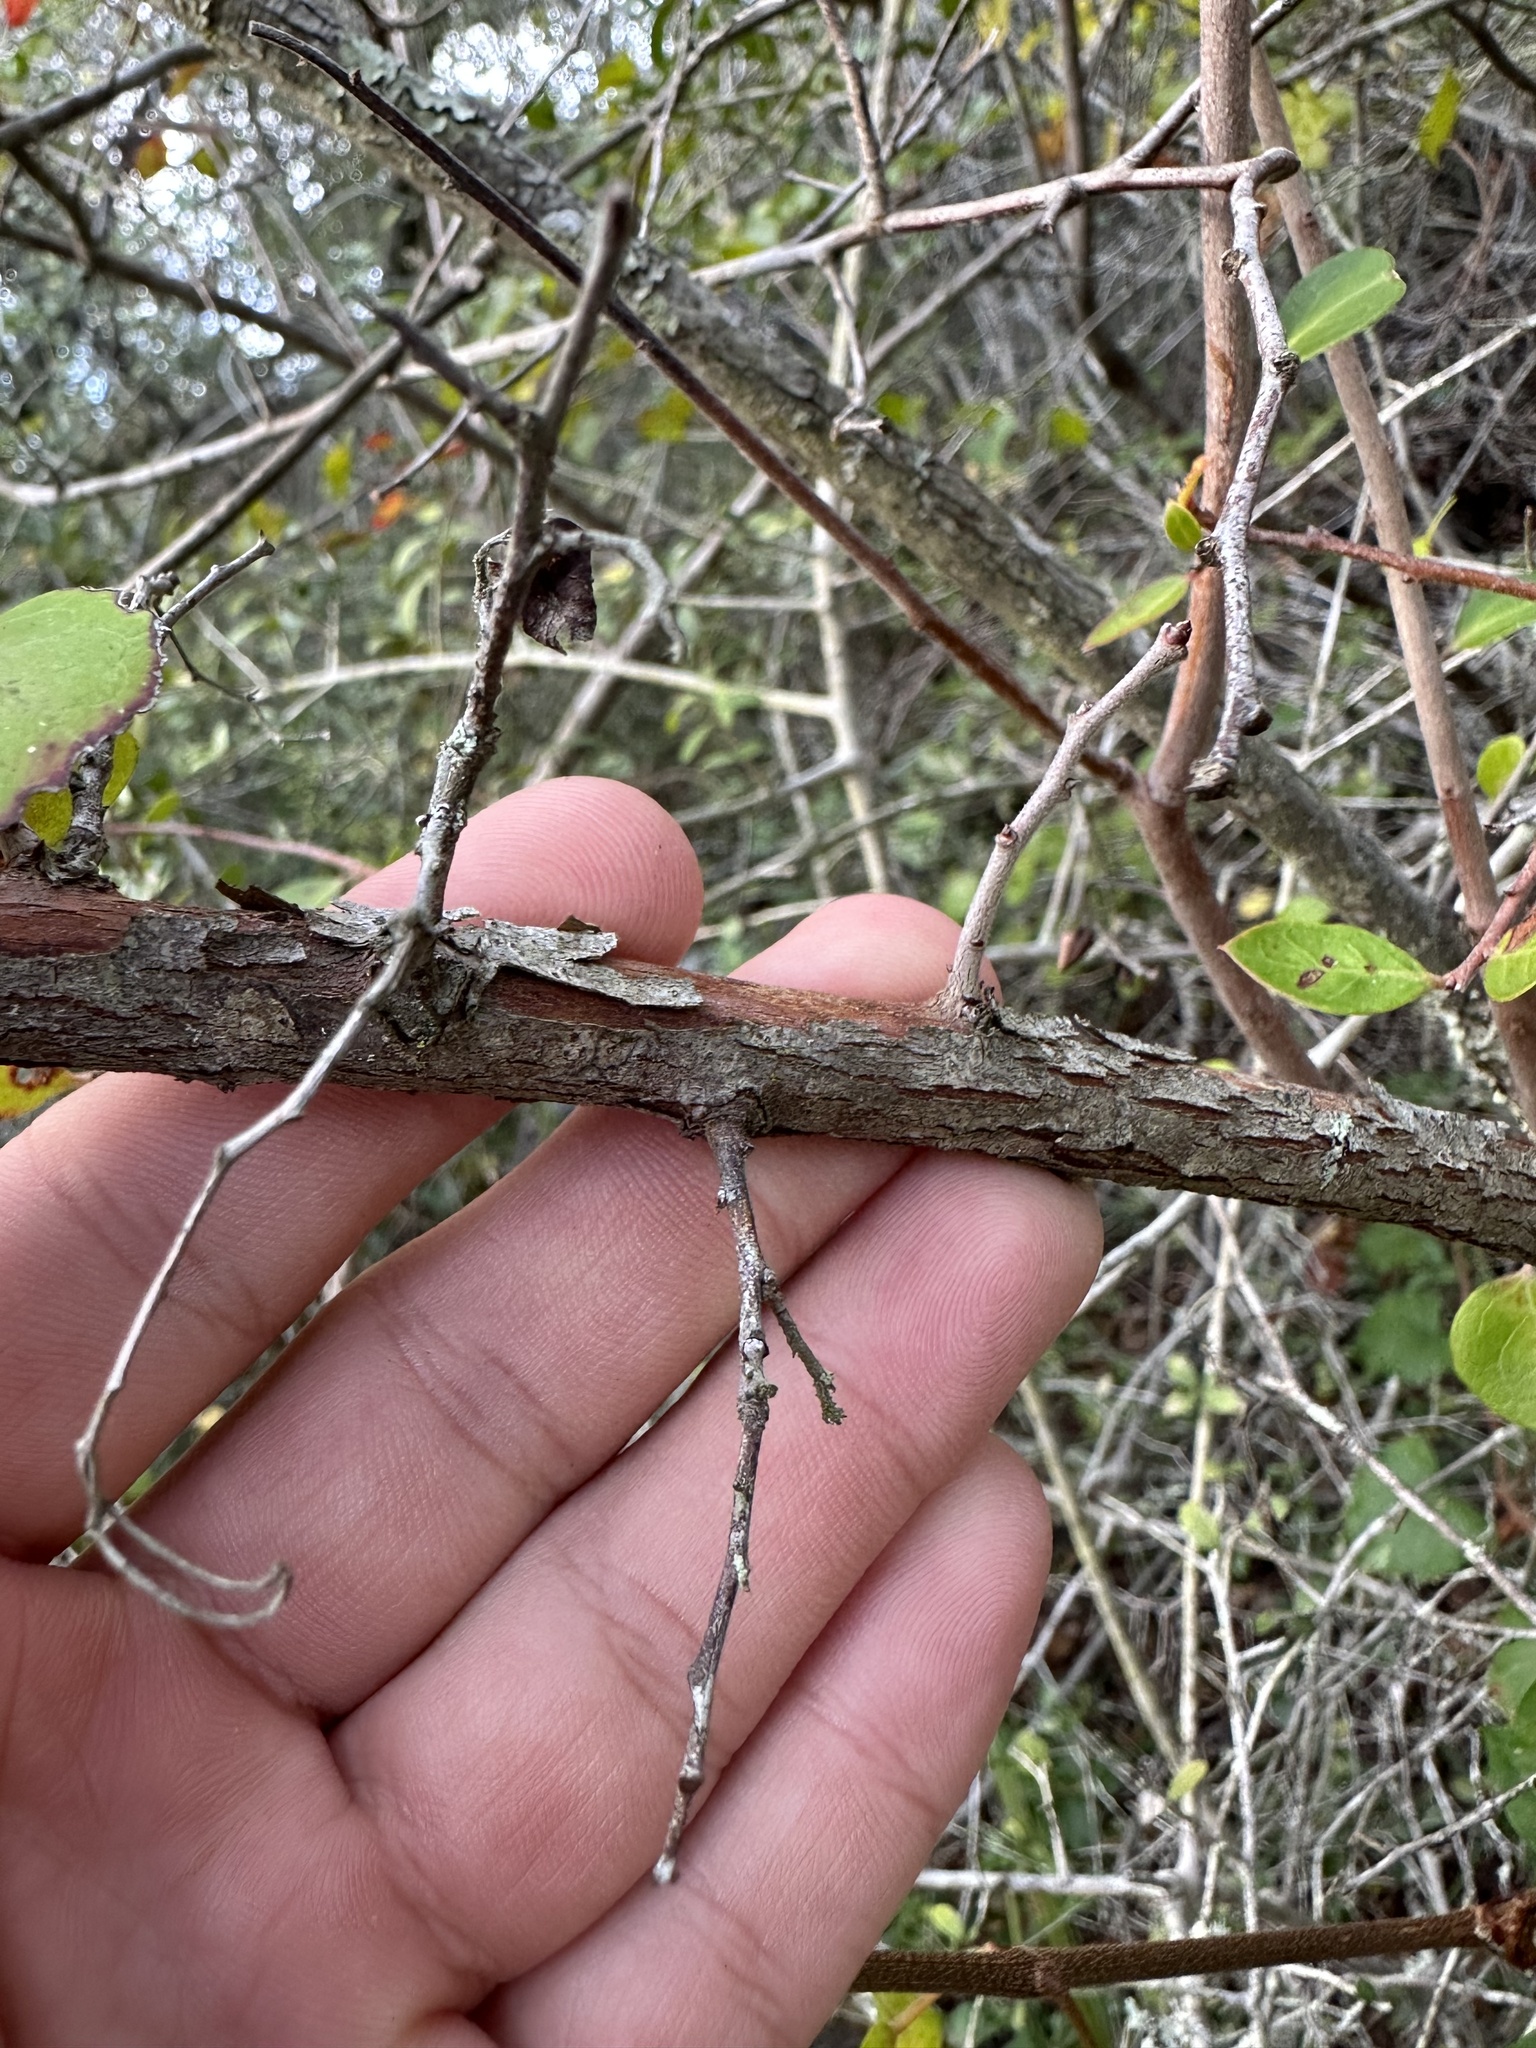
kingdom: Plantae
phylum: Tracheophyta
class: Magnoliopsida
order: Ericales
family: Ericaceae
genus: Vaccinium
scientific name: Vaccinium arboreum
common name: Farkleberry
